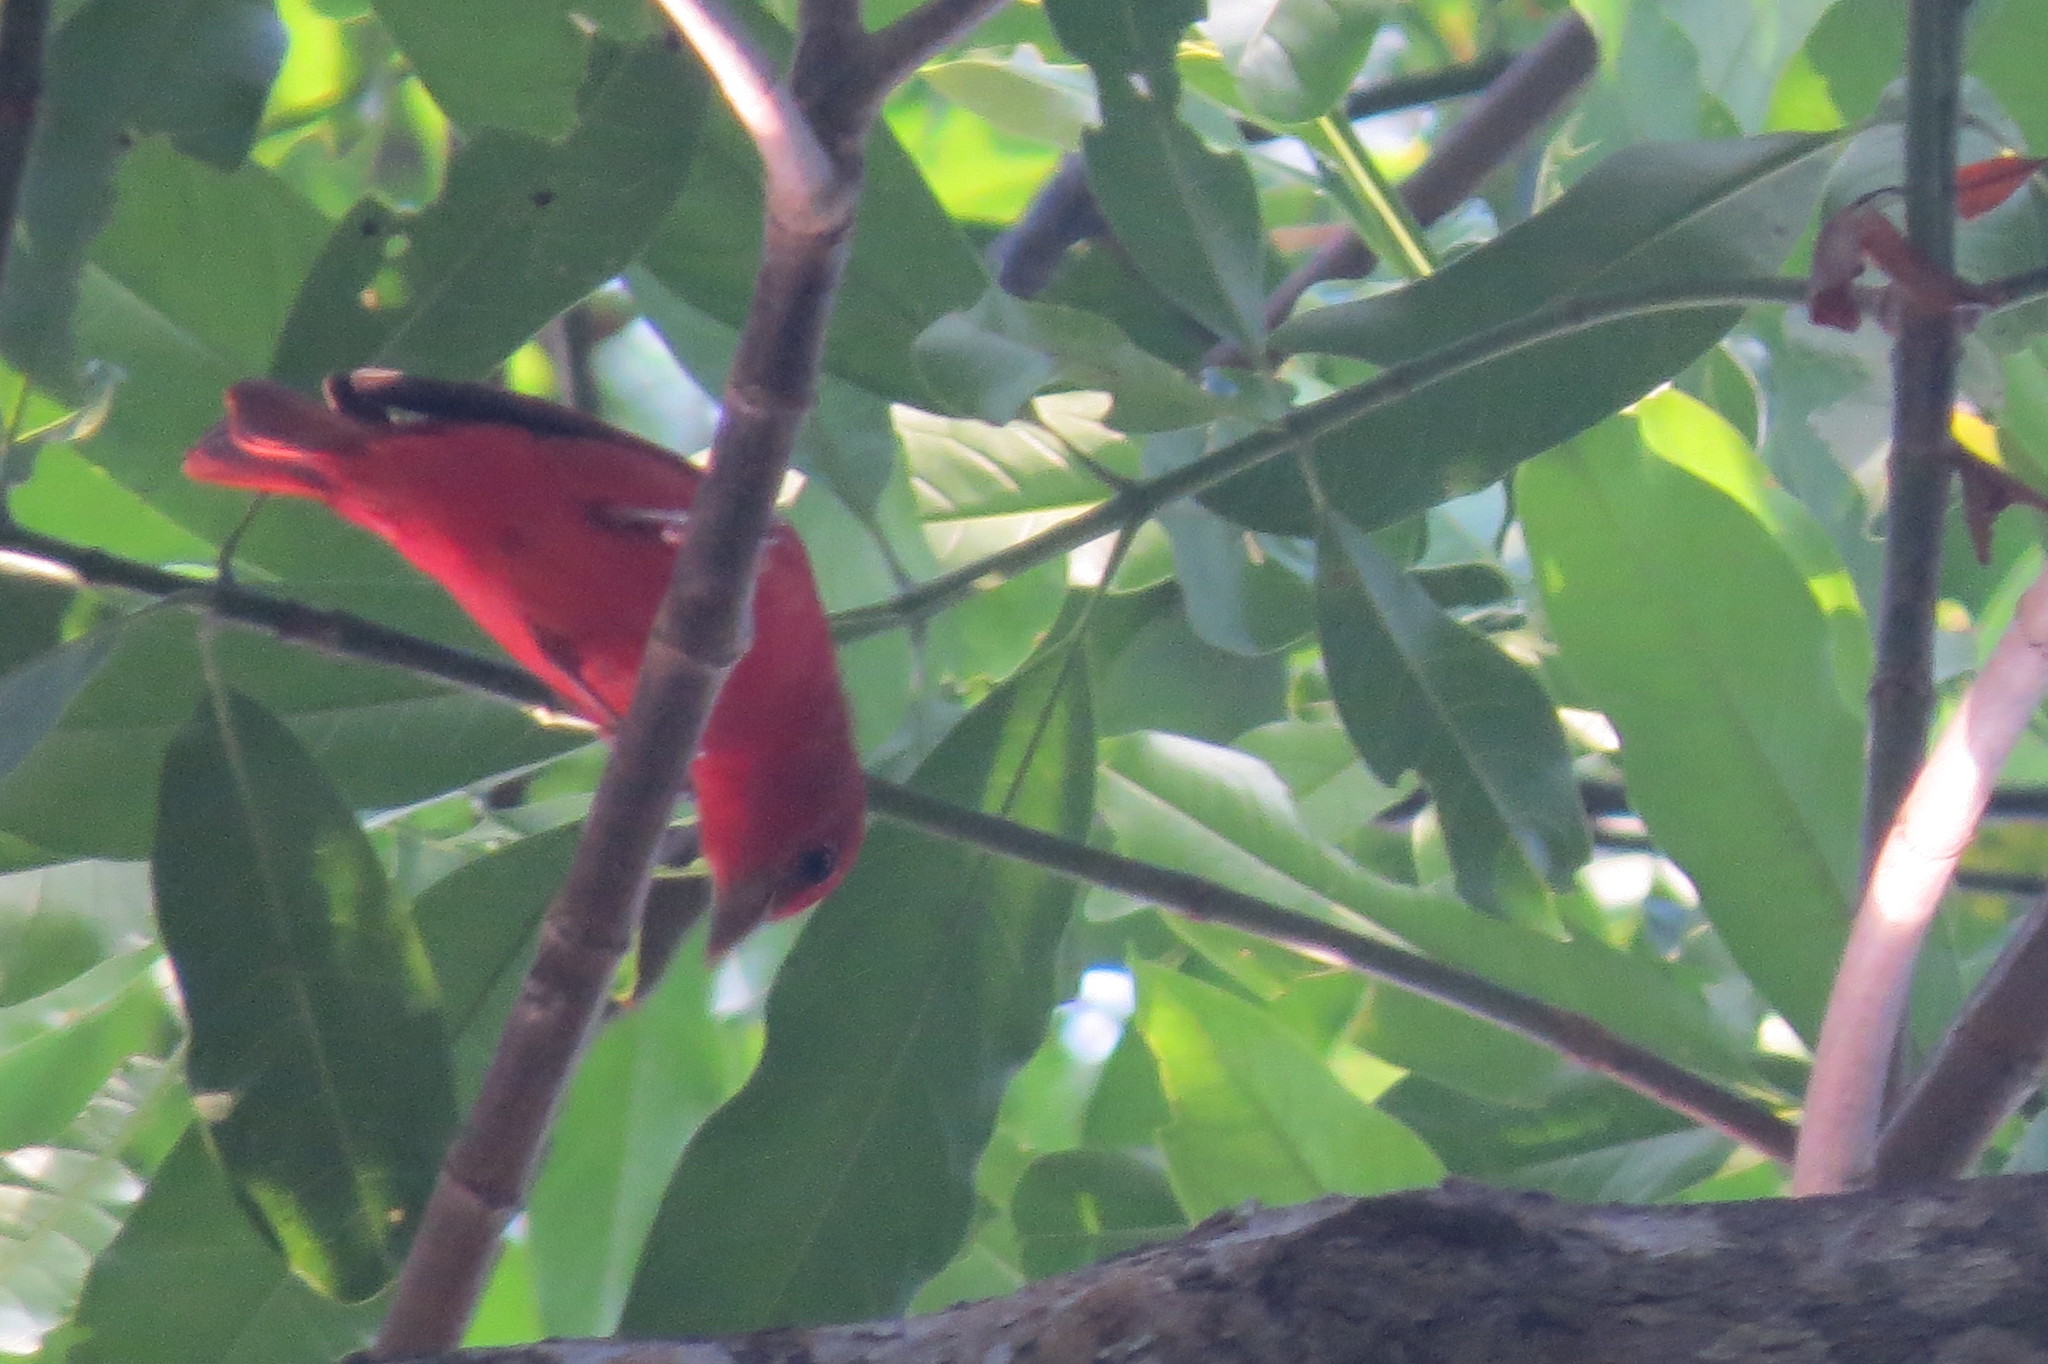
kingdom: Animalia
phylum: Chordata
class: Aves
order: Passeriformes
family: Cardinalidae
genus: Piranga
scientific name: Piranga rubra
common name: Summer tanager
